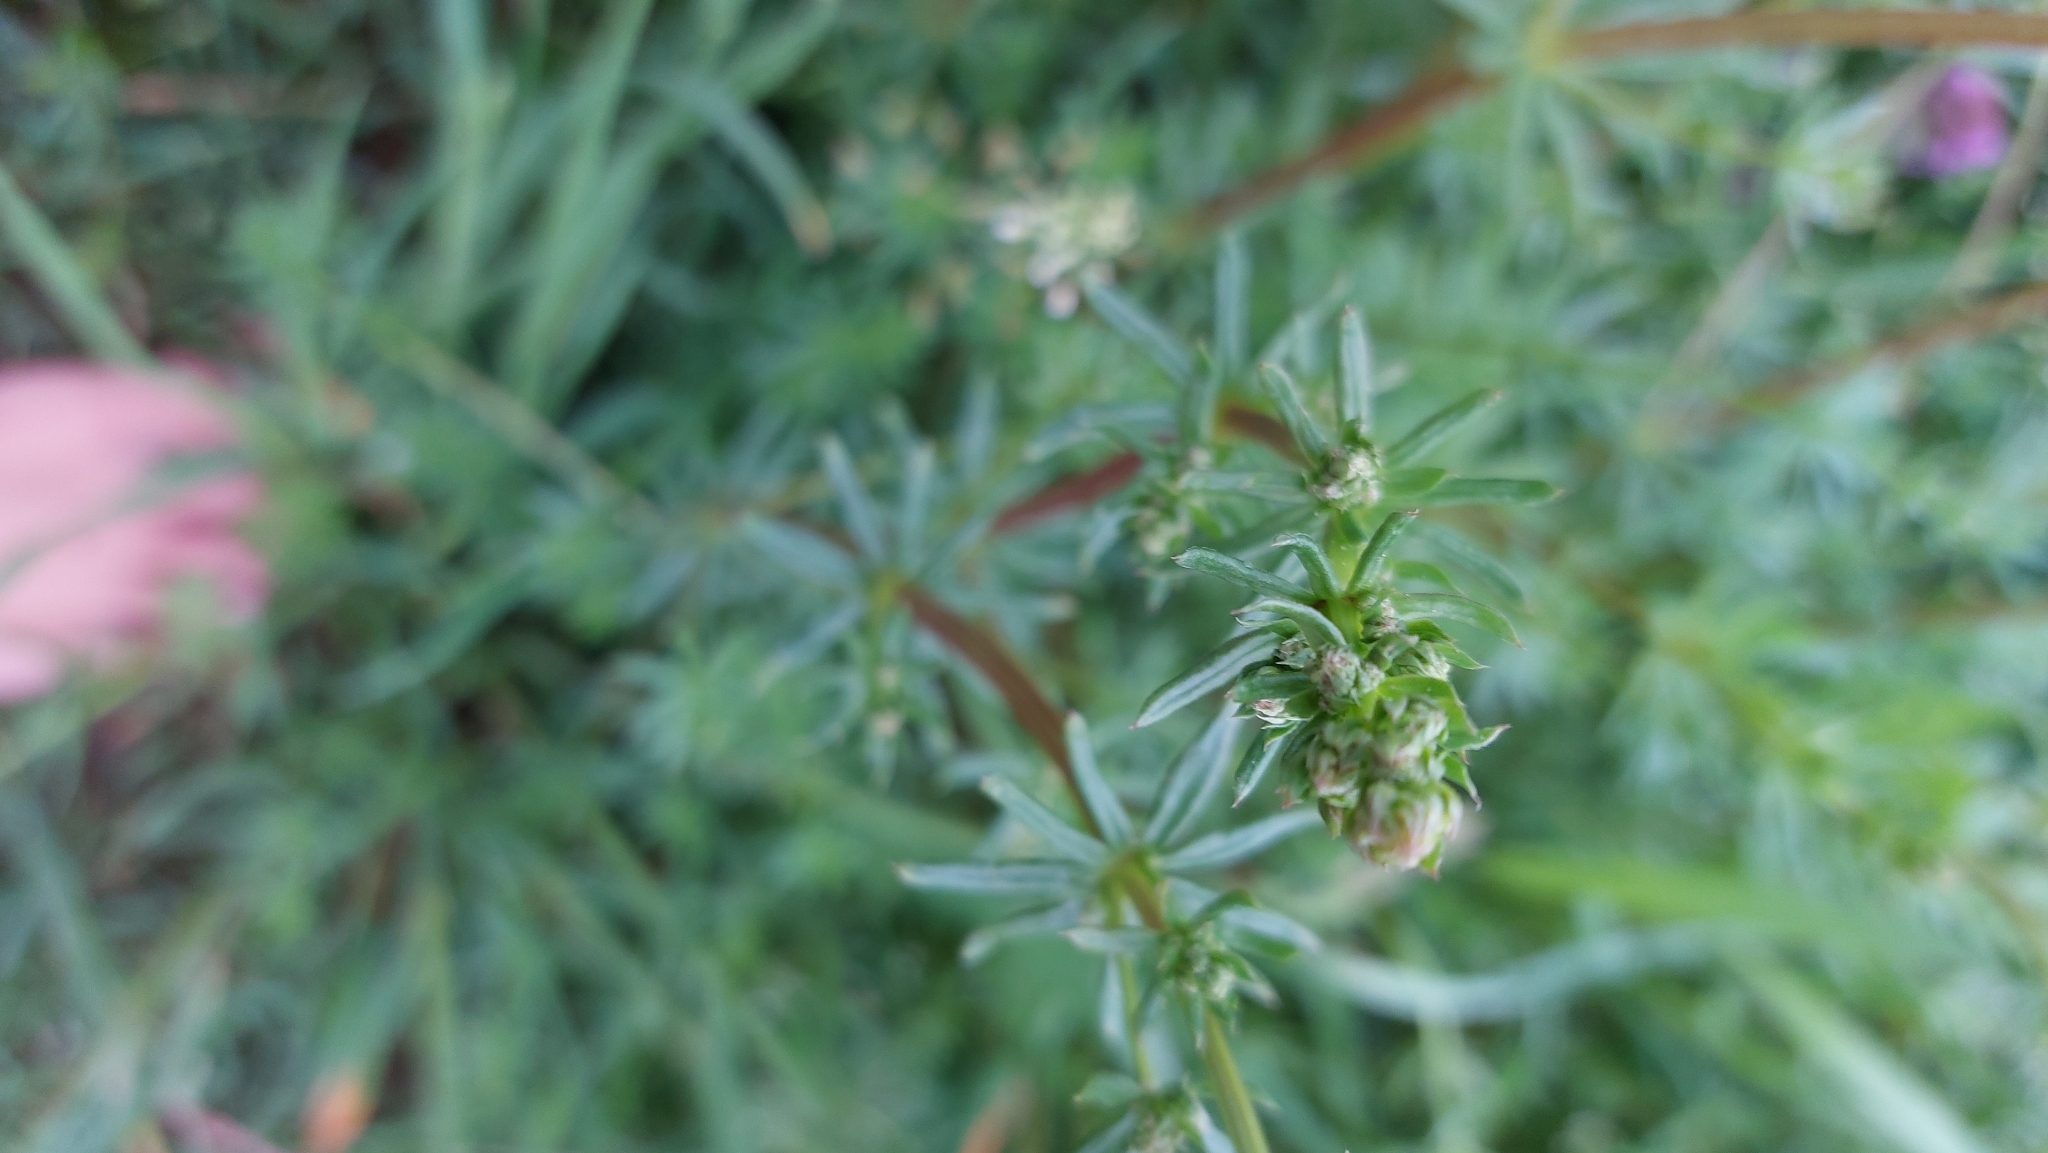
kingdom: Plantae
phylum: Tracheophyta
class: Magnoliopsida
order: Gentianales
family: Rubiaceae
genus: Galium
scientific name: Galium album
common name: White bedstraw
